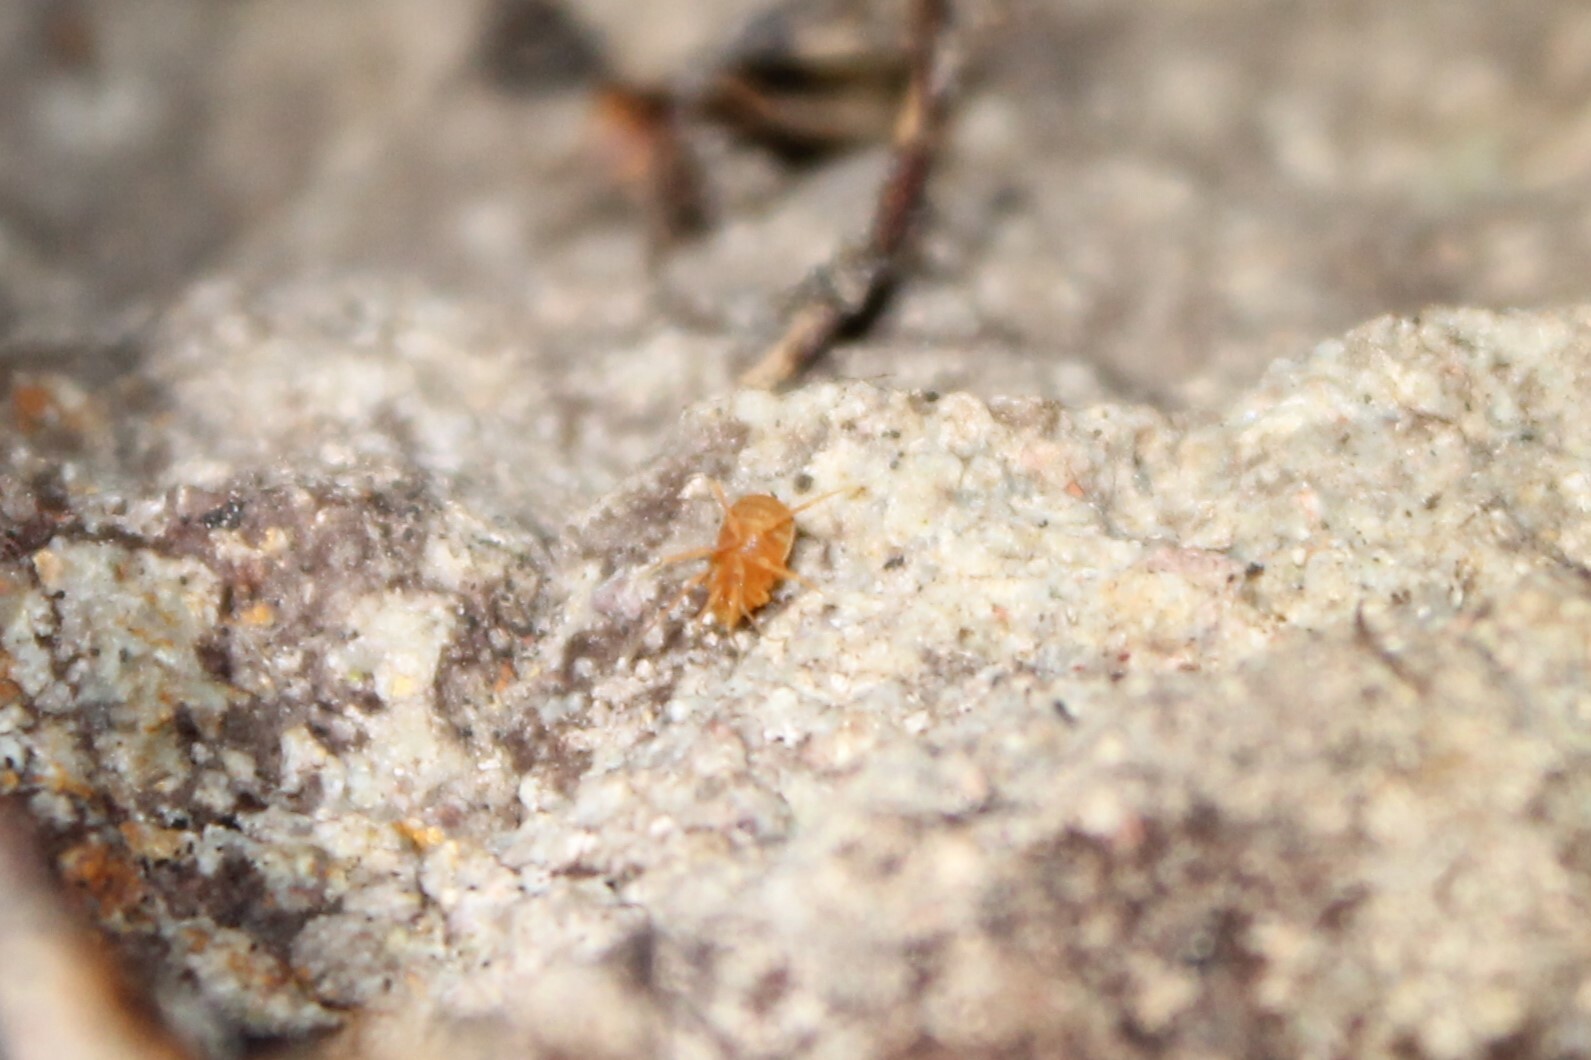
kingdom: Animalia
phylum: Arthropoda
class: Arachnida
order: Opiliones
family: Phalangodidae
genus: Sitalcina
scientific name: Sitalcina chalona
